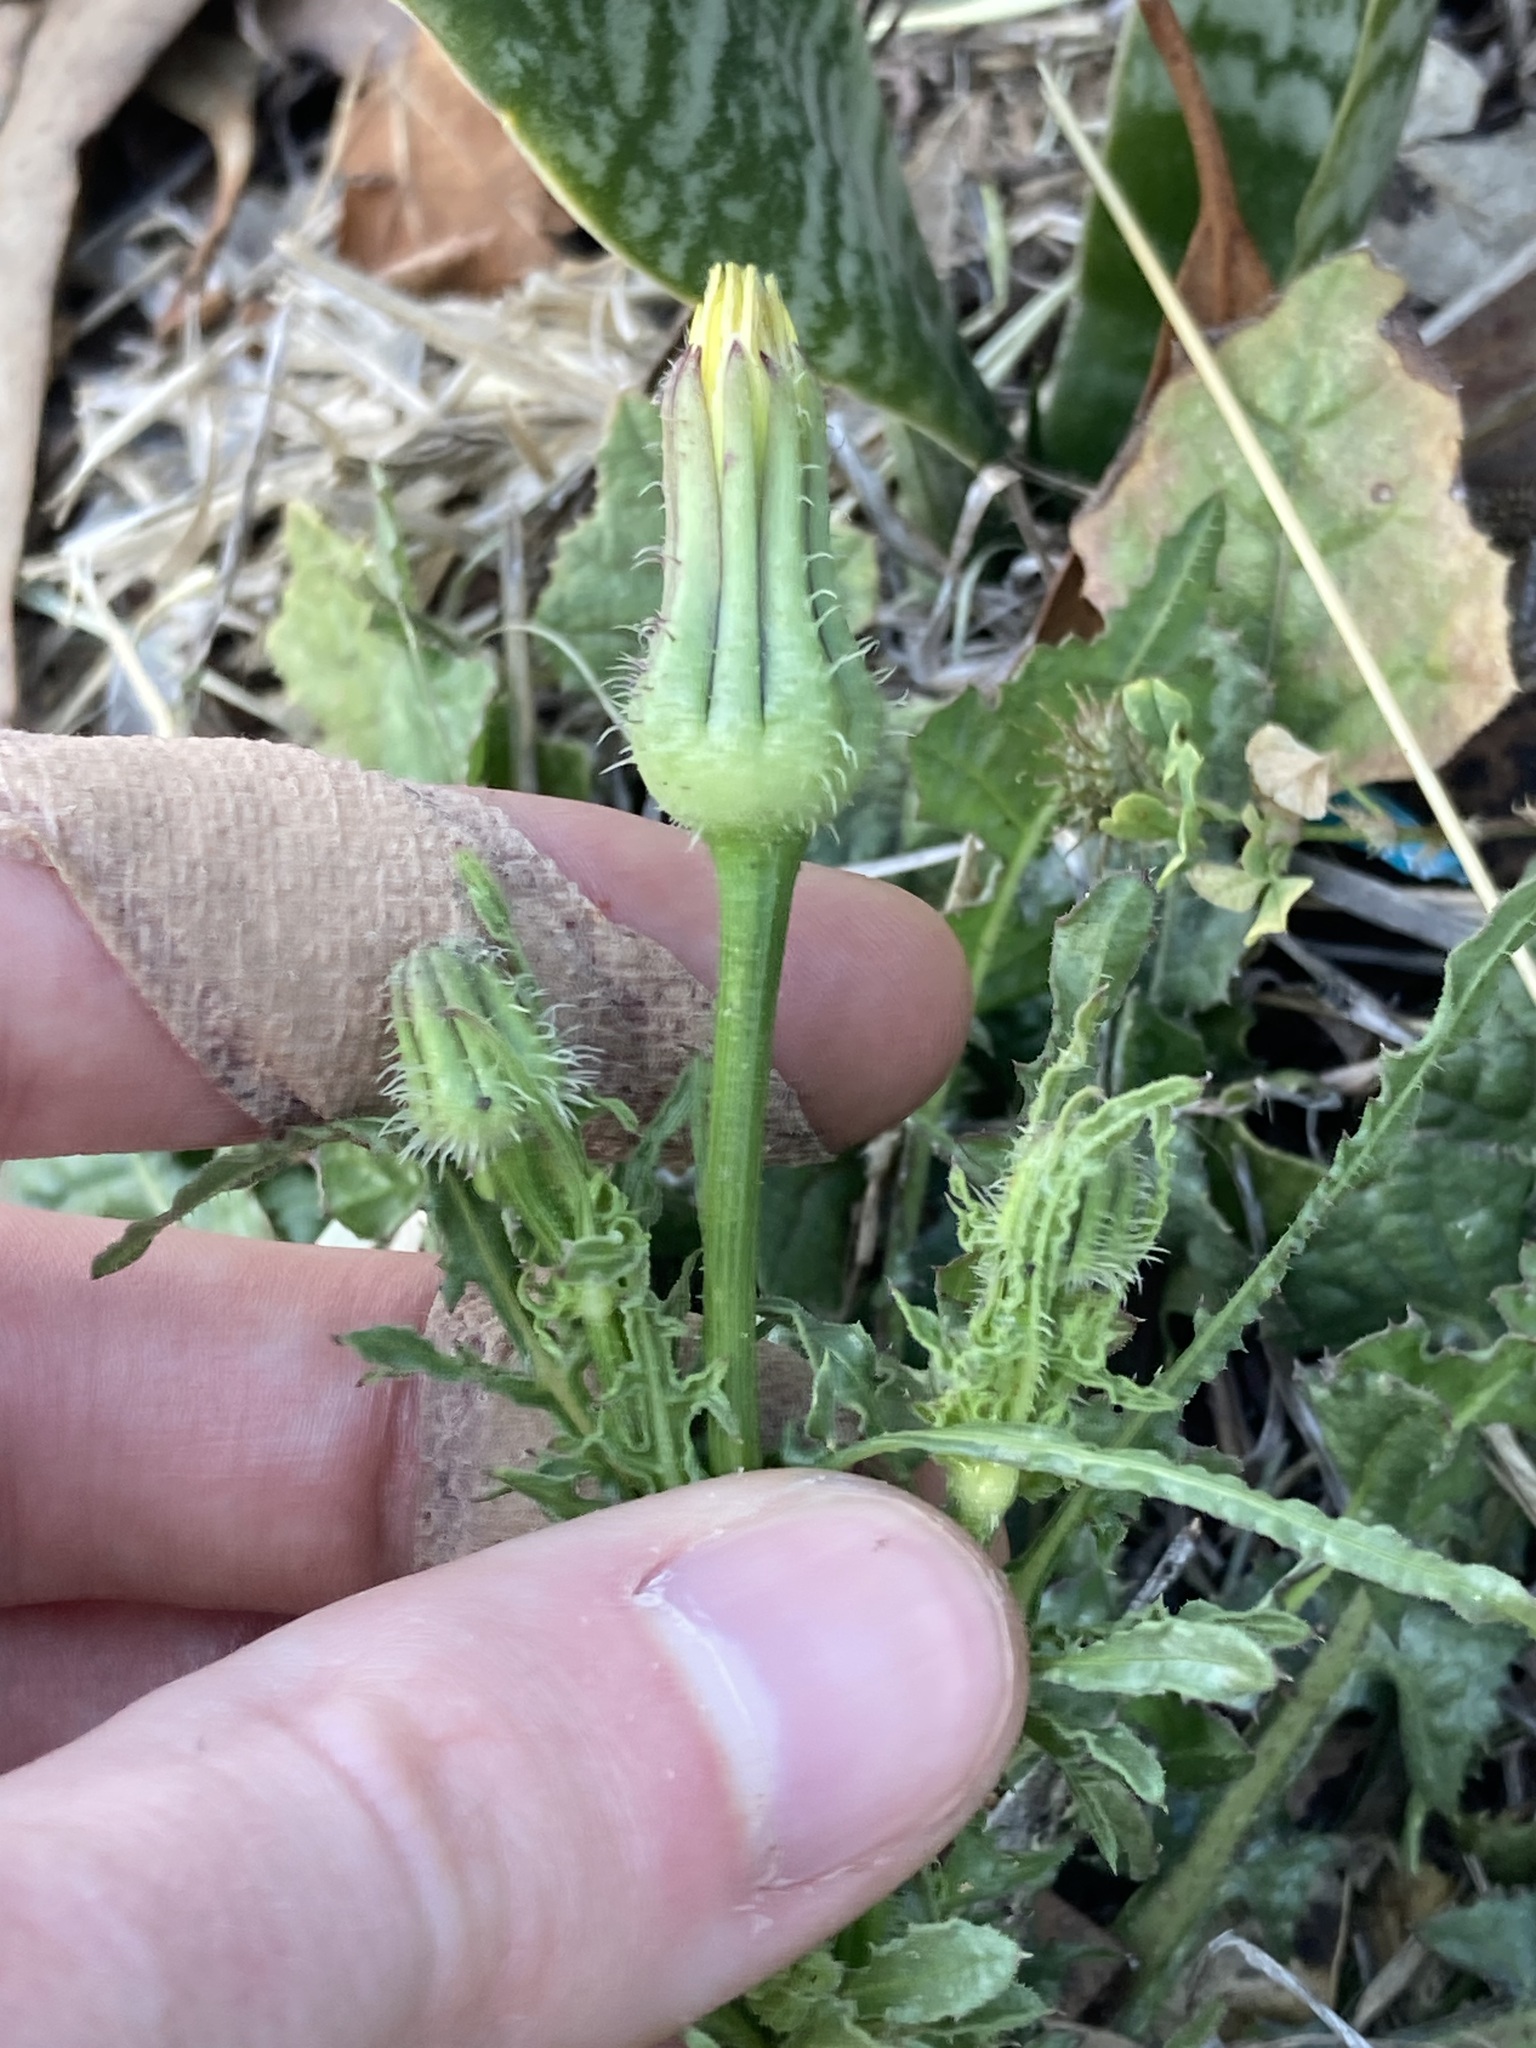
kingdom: Plantae
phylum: Tracheophyta
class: Magnoliopsida
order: Asterales
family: Asteraceae
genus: Urospermum
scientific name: Urospermum picroides
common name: False hawkbit
